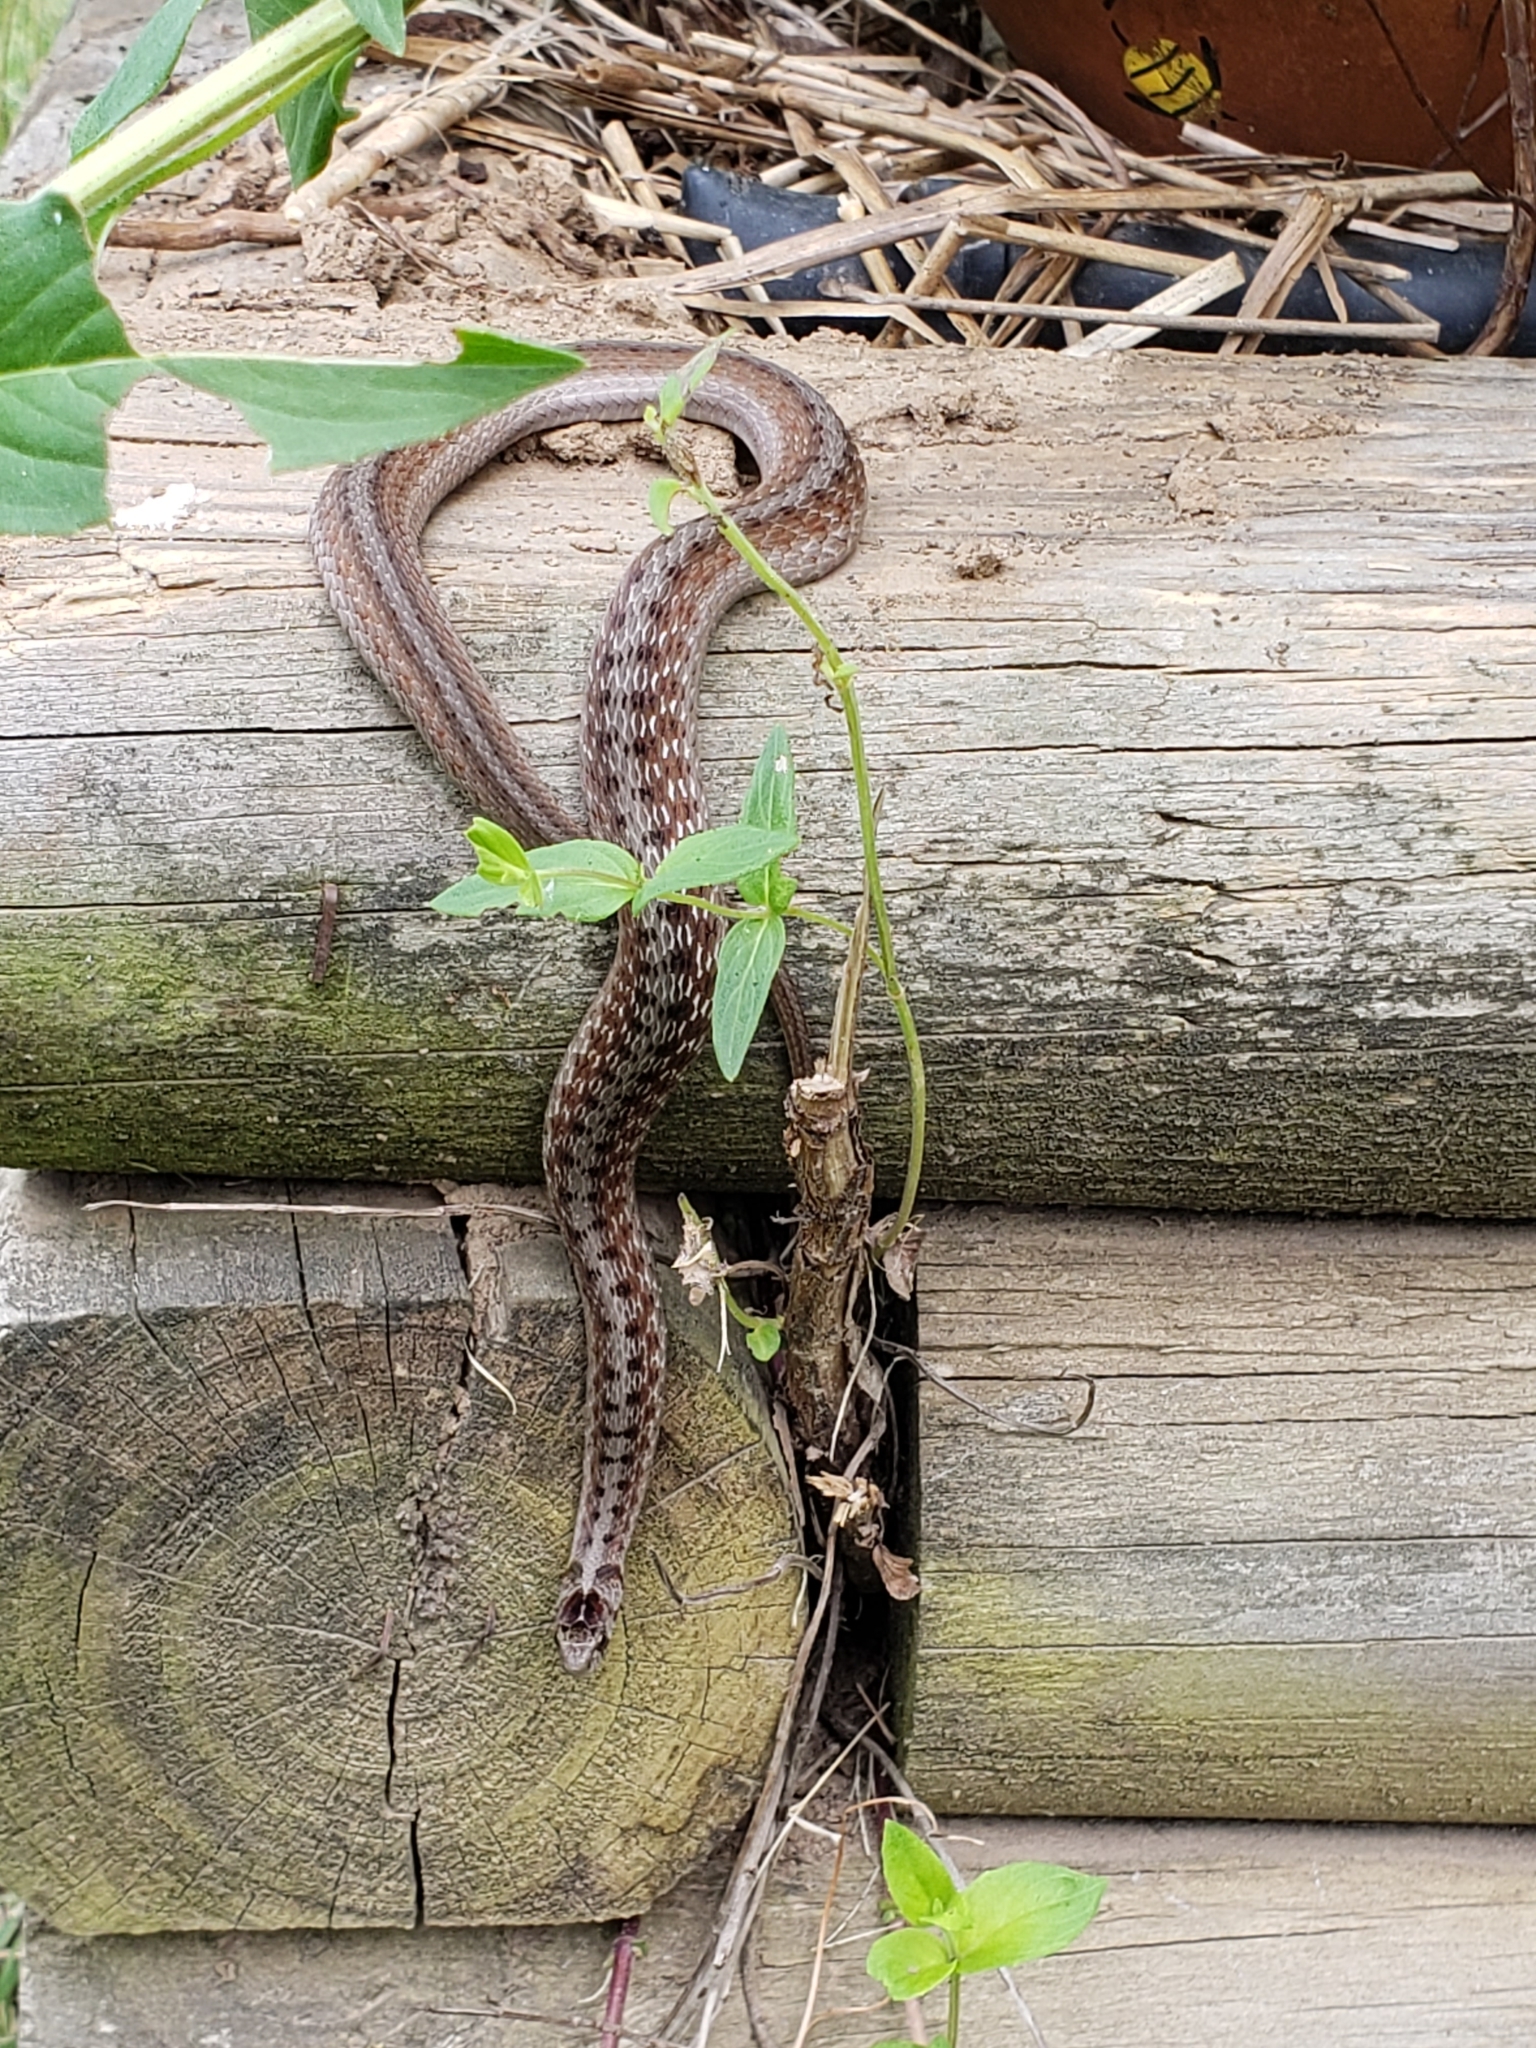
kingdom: Animalia
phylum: Chordata
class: Squamata
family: Colubridae
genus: Storeria
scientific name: Storeria dekayi
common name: (dekay’s) brown snake
